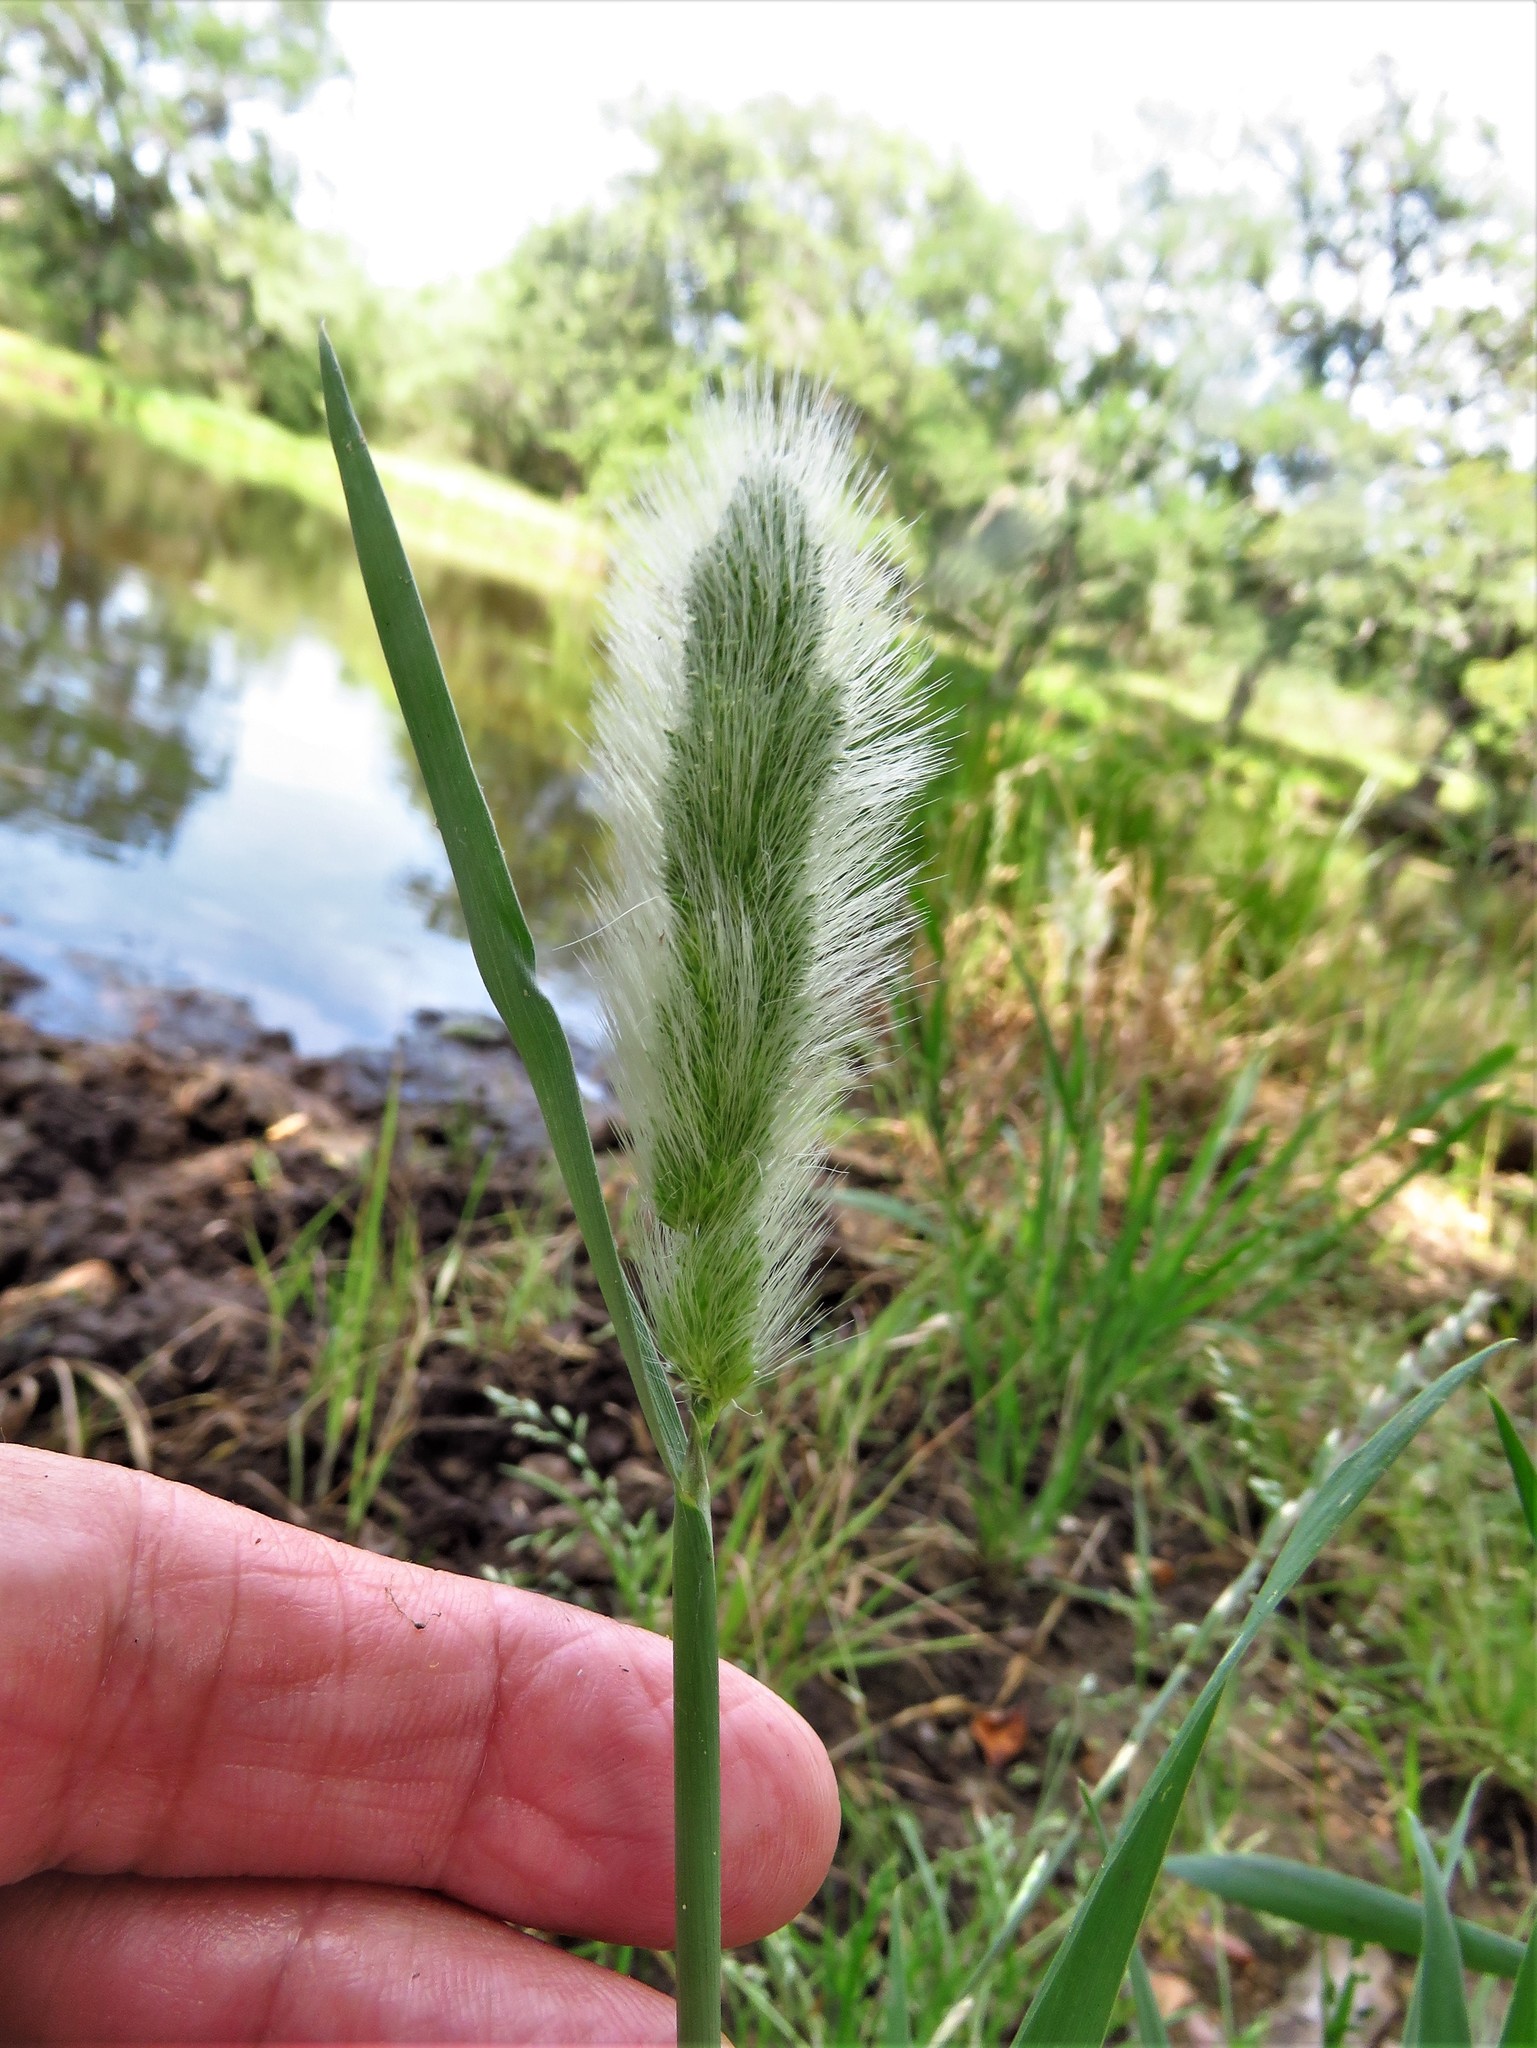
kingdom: Plantae
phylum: Tracheophyta
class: Liliopsida
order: Poales
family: Poaceae
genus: Polypogon
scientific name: Polypogon monspeliensis
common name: Annual rabbitsfoot grass
